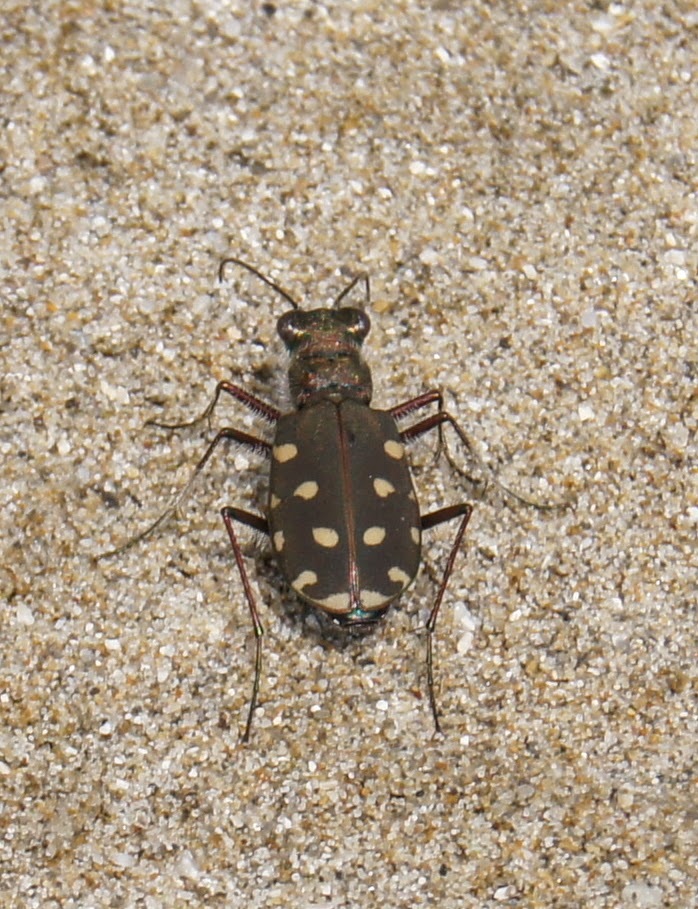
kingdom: Animalia
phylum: Arthropoda
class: Insecta
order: Coleoptera
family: Carabidae
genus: Cicindela
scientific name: Cicindela littoralis
